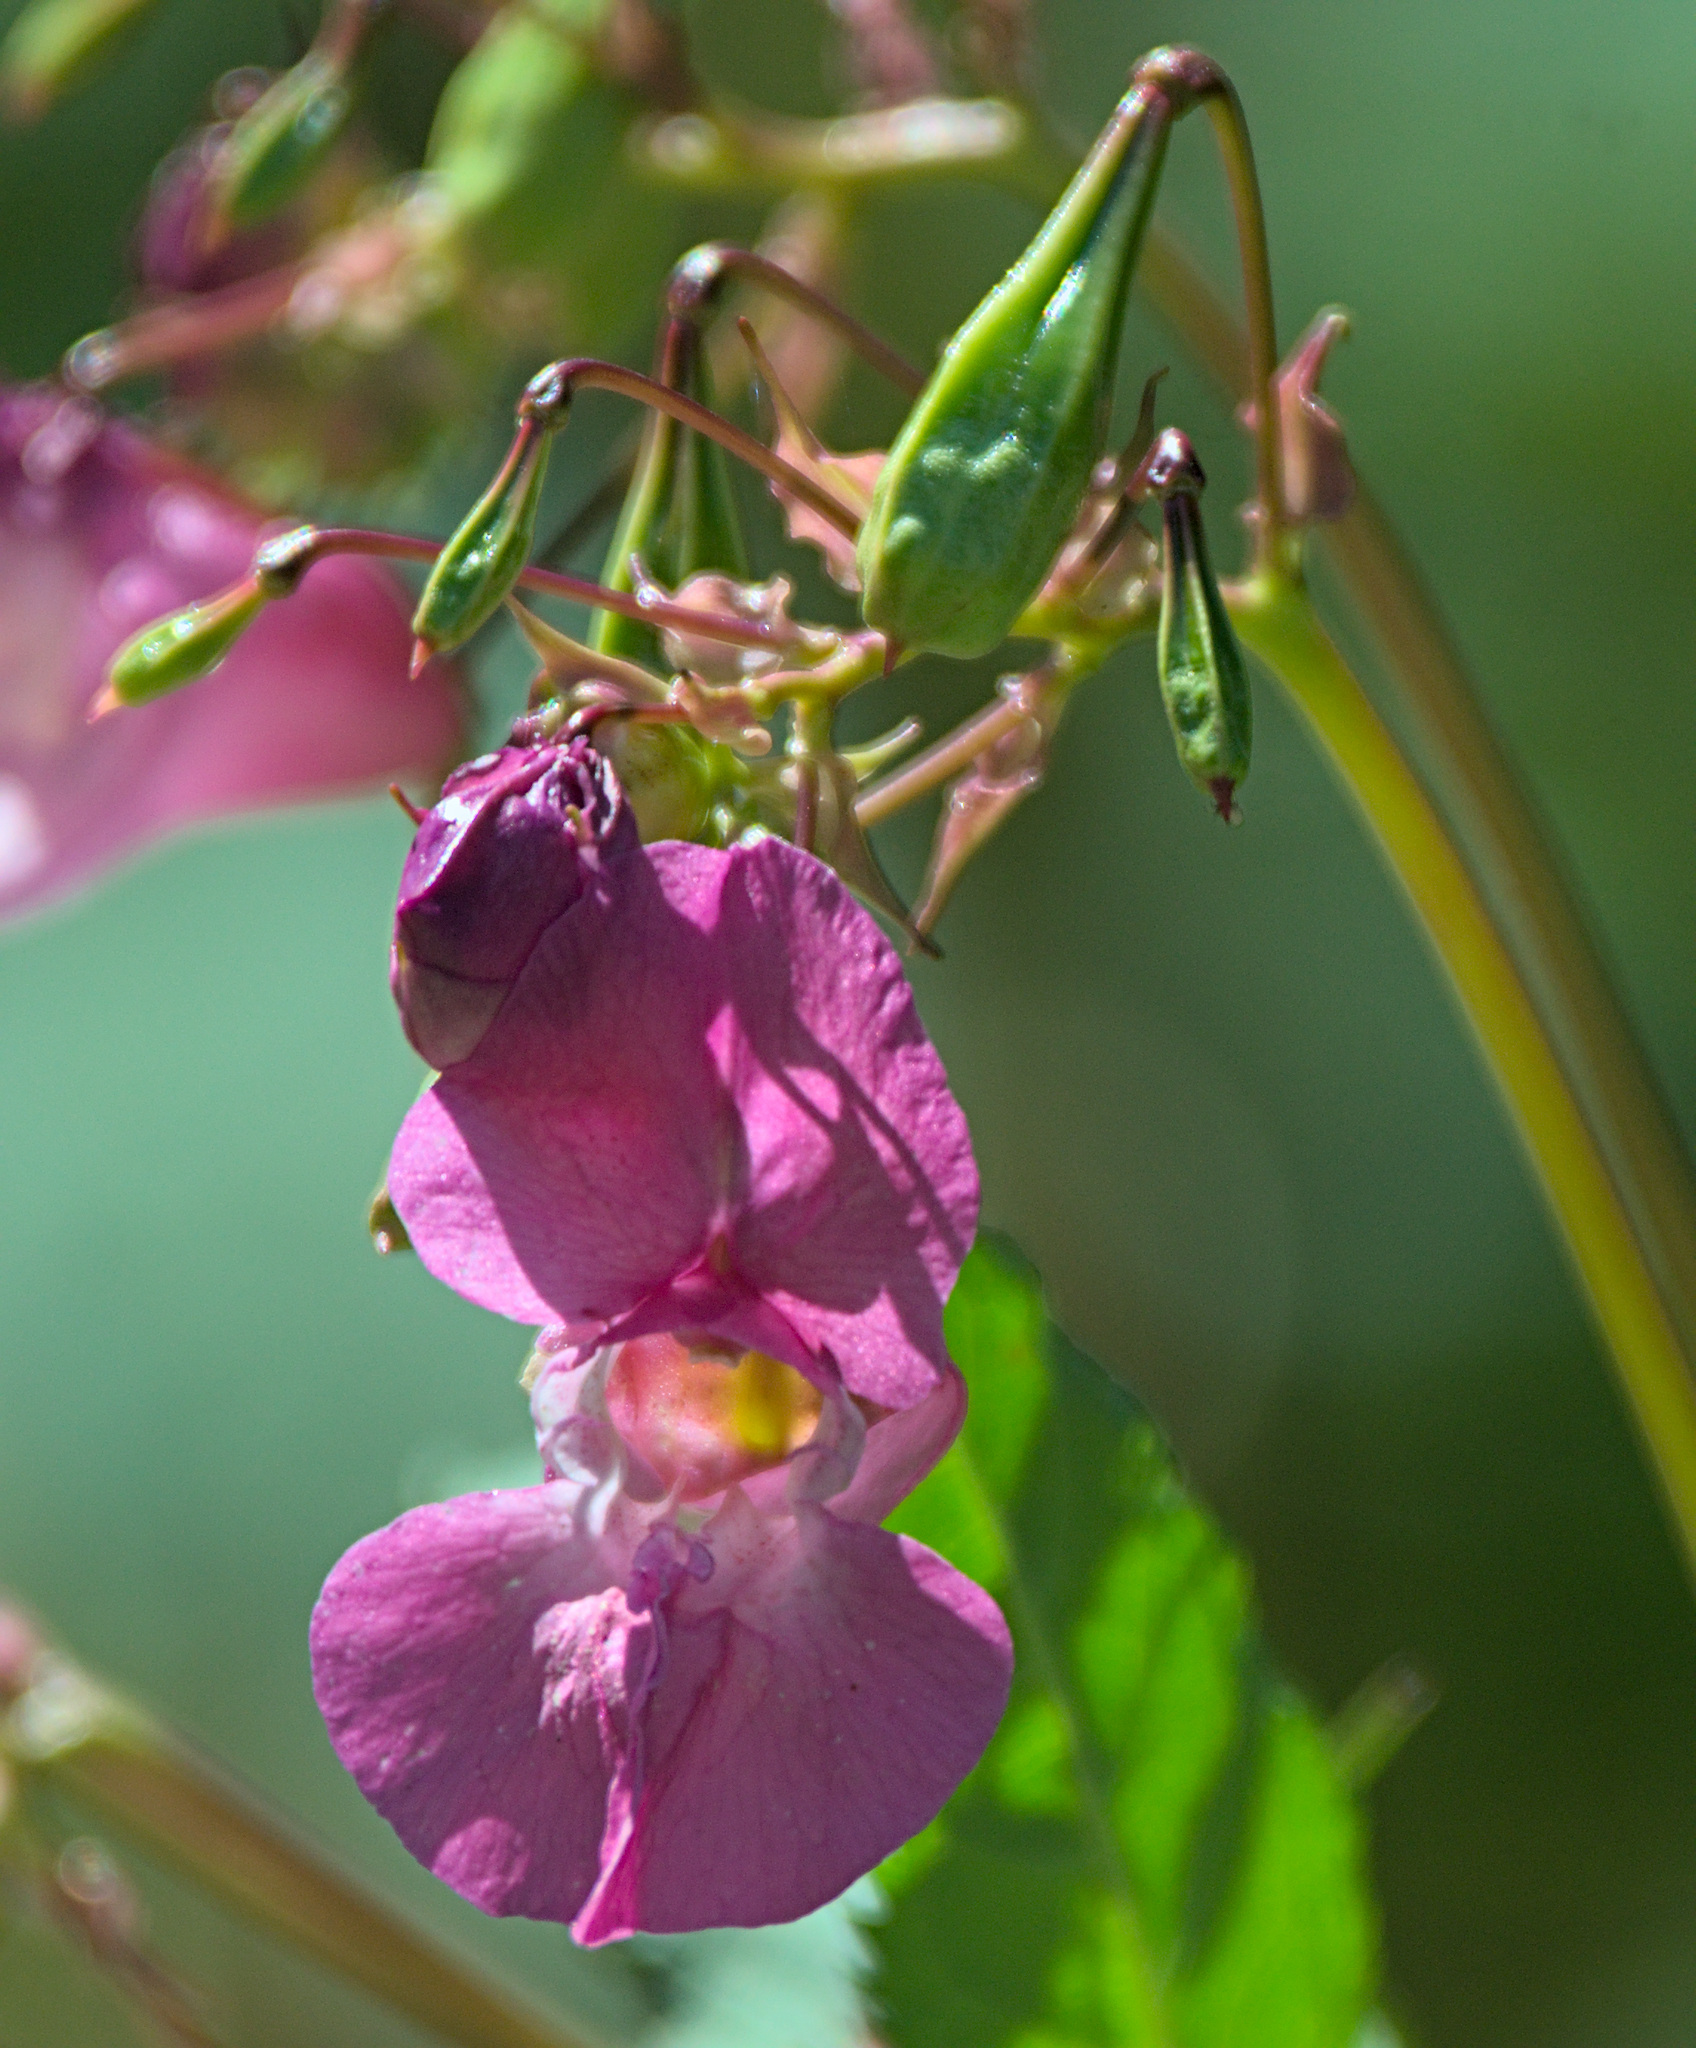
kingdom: Plantae
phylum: Tracheophyta
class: Magnoliopsida
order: Ericales
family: Balsaminaceae
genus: Impatiens
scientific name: Impatiens glandulifera
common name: Himalayan balsam
